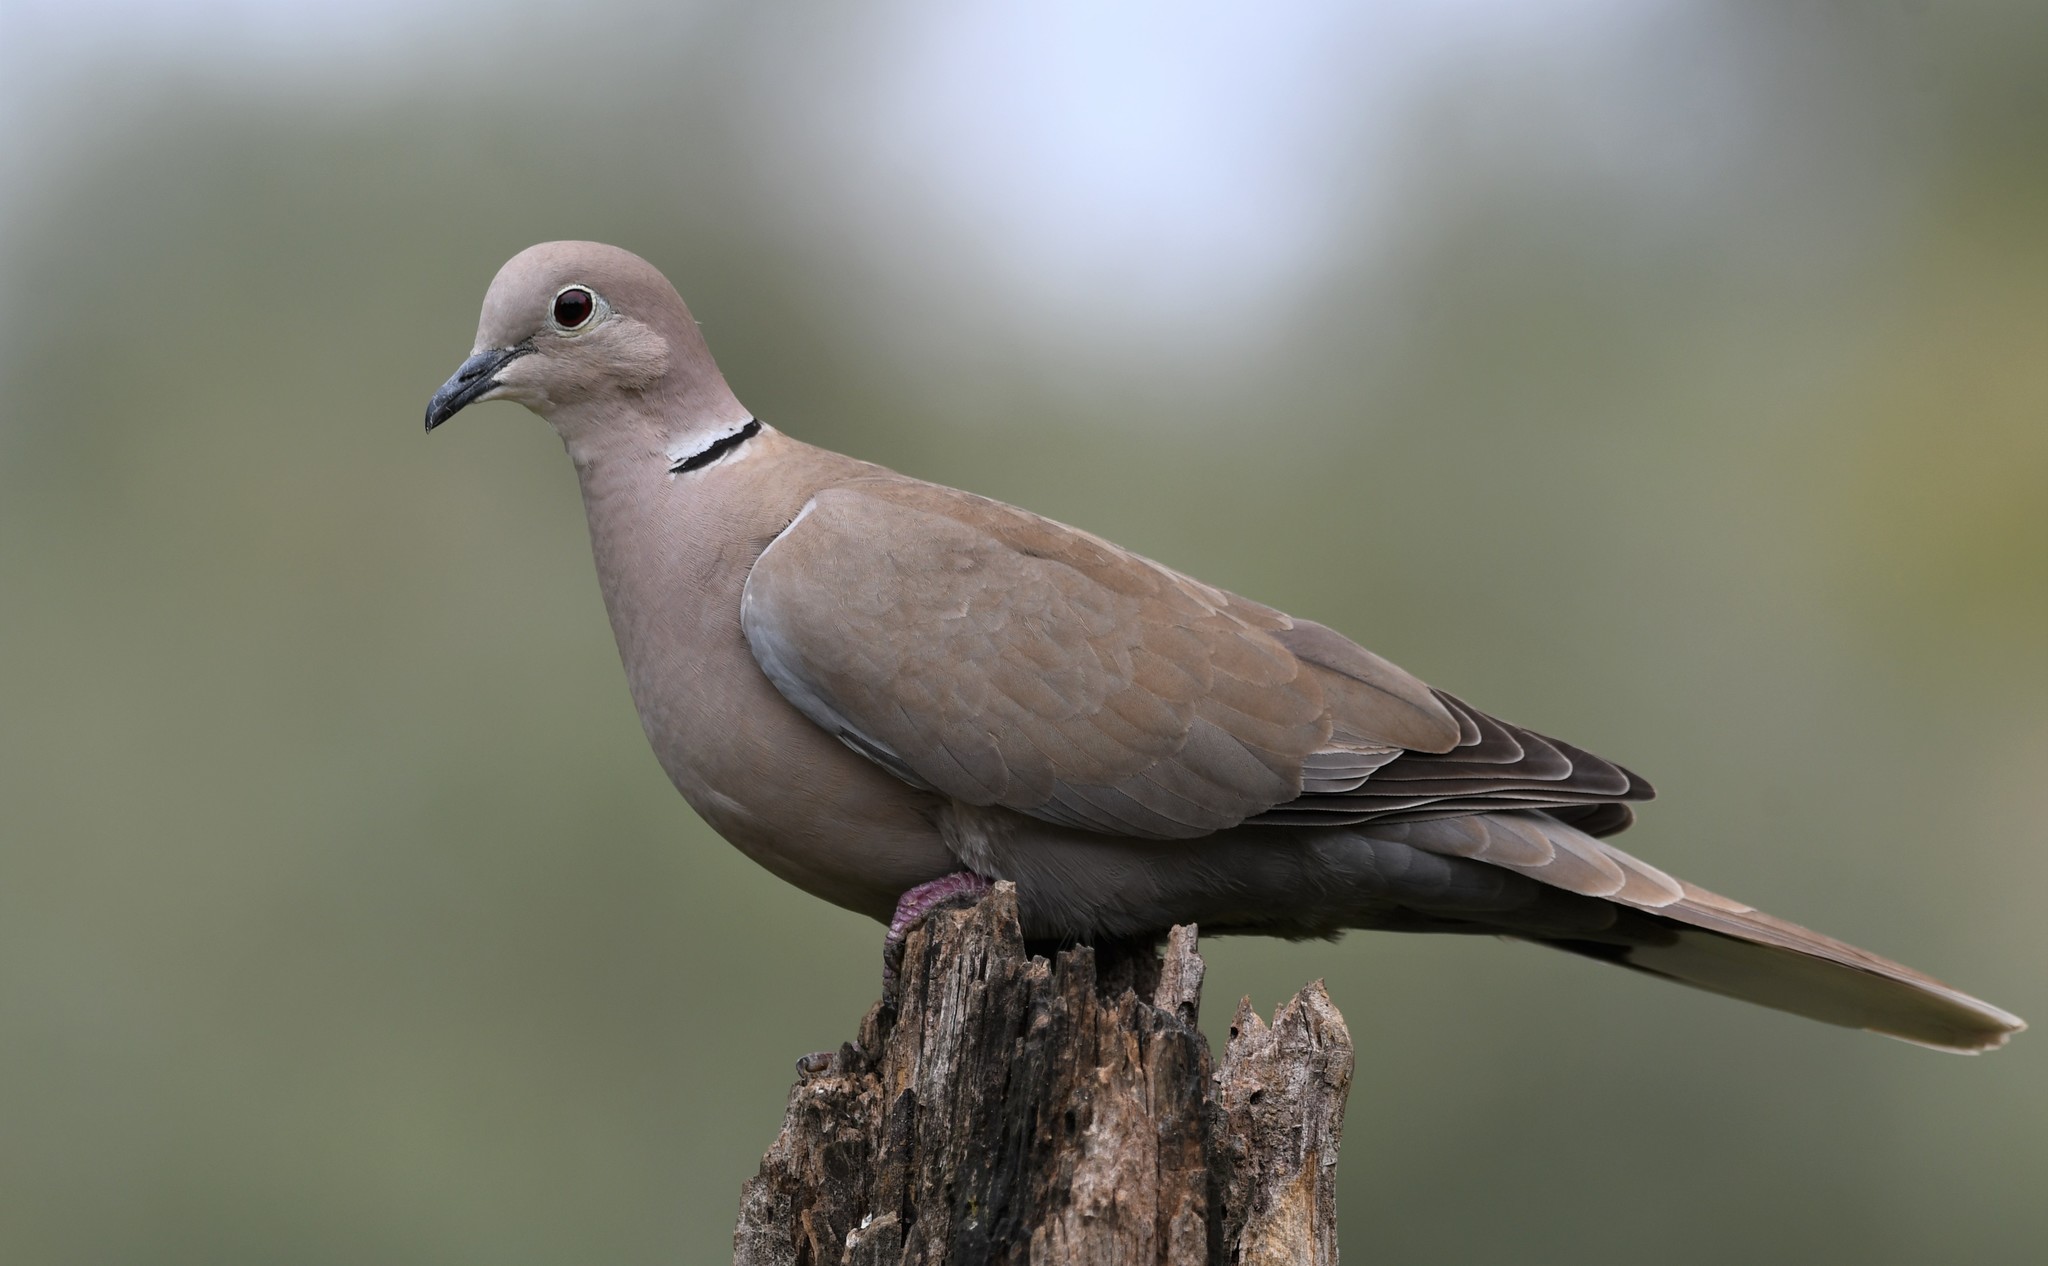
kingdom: Animalia
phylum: Chordata
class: Aves
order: Columbiformes
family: Columbidae
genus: Streptopelia
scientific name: Streptopelia decaocto
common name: Eurasian collared dove
